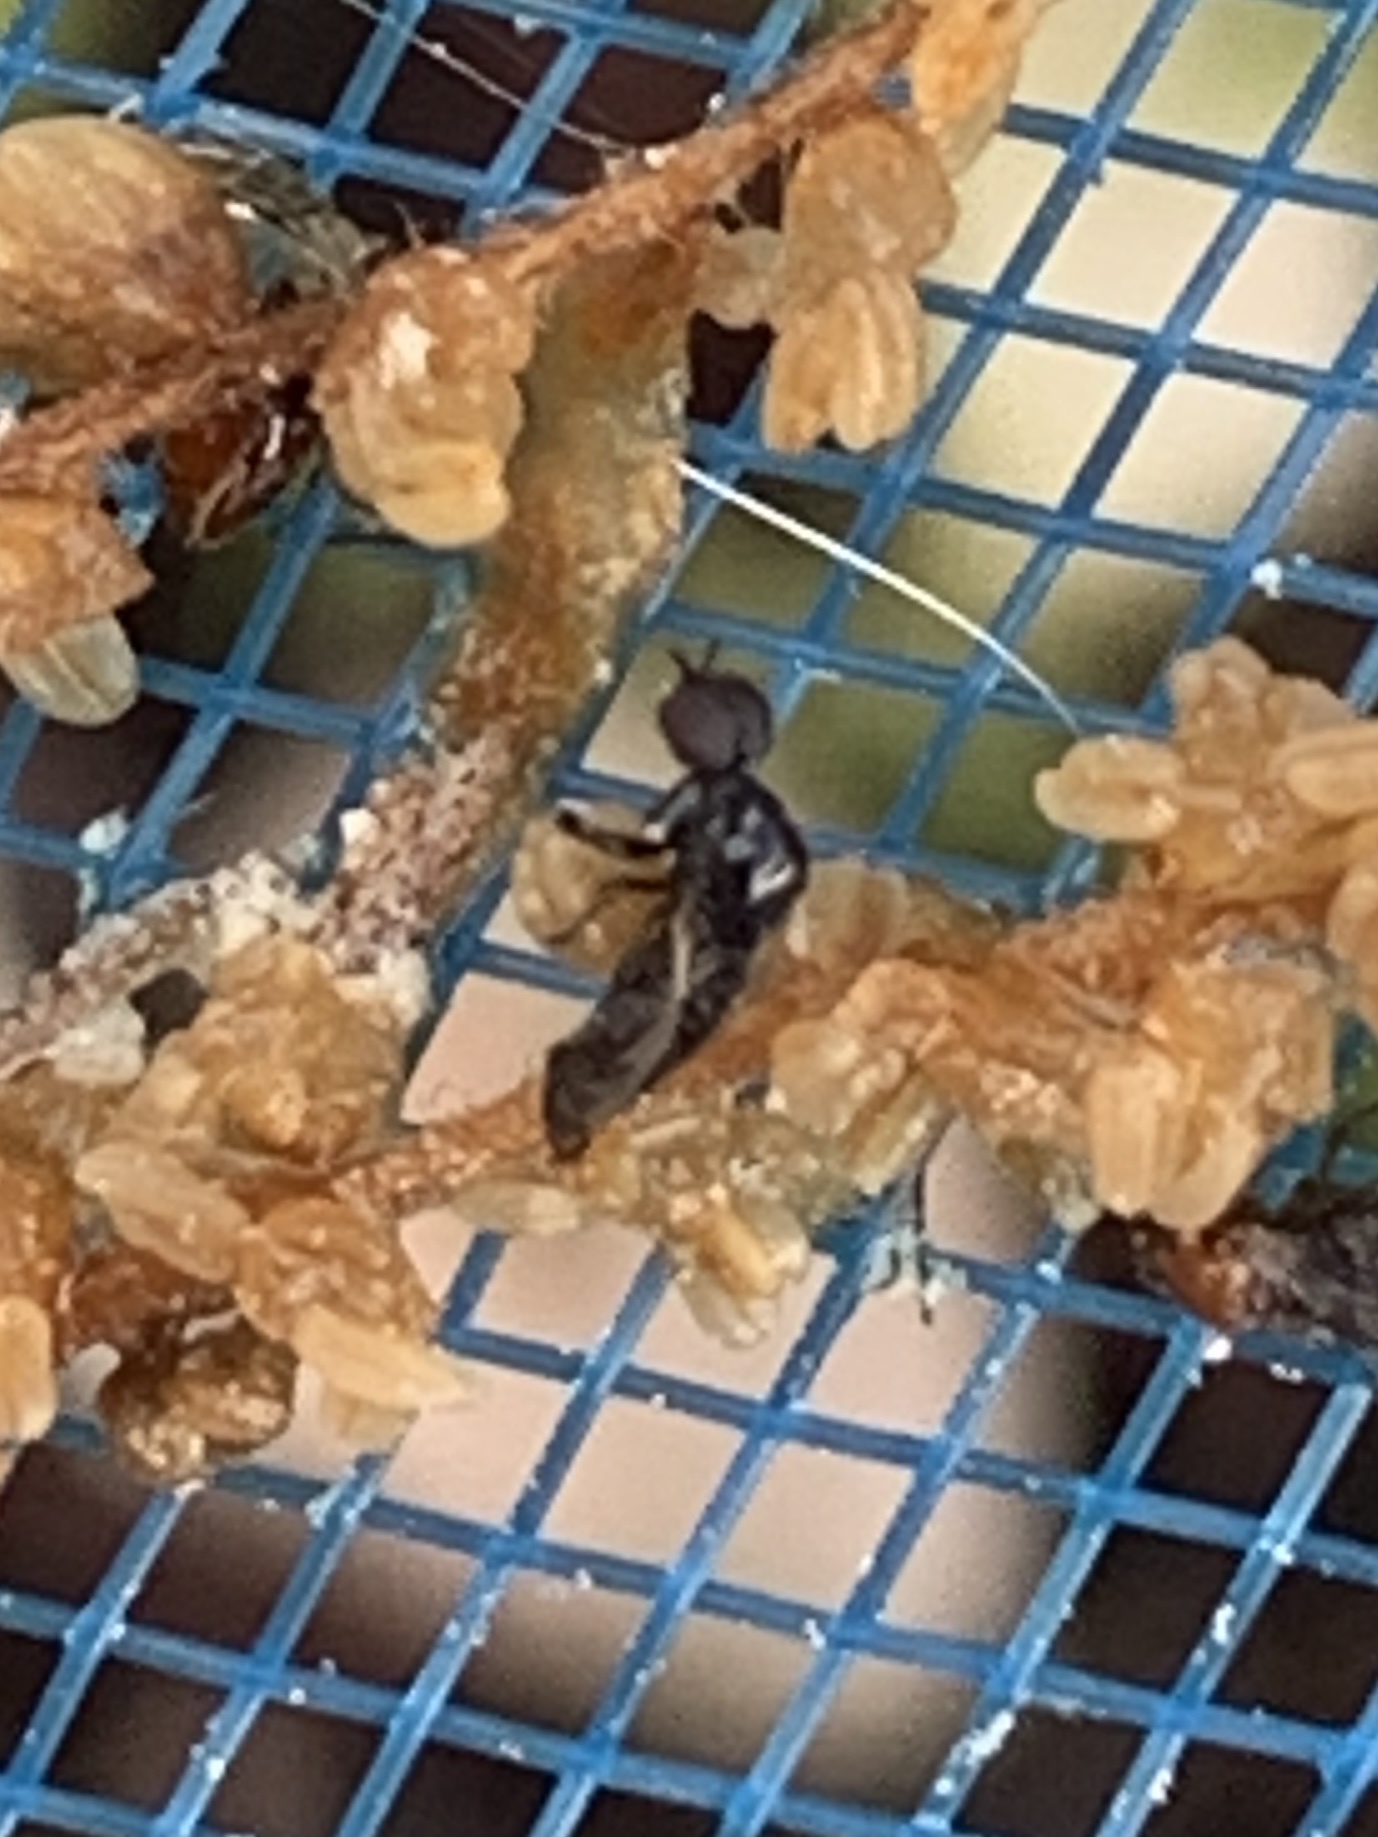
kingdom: Animalia
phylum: Arthropoda
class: Insecta
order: Diptera
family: Bibionidae
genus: Dilophus
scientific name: Dilophus tibialis
